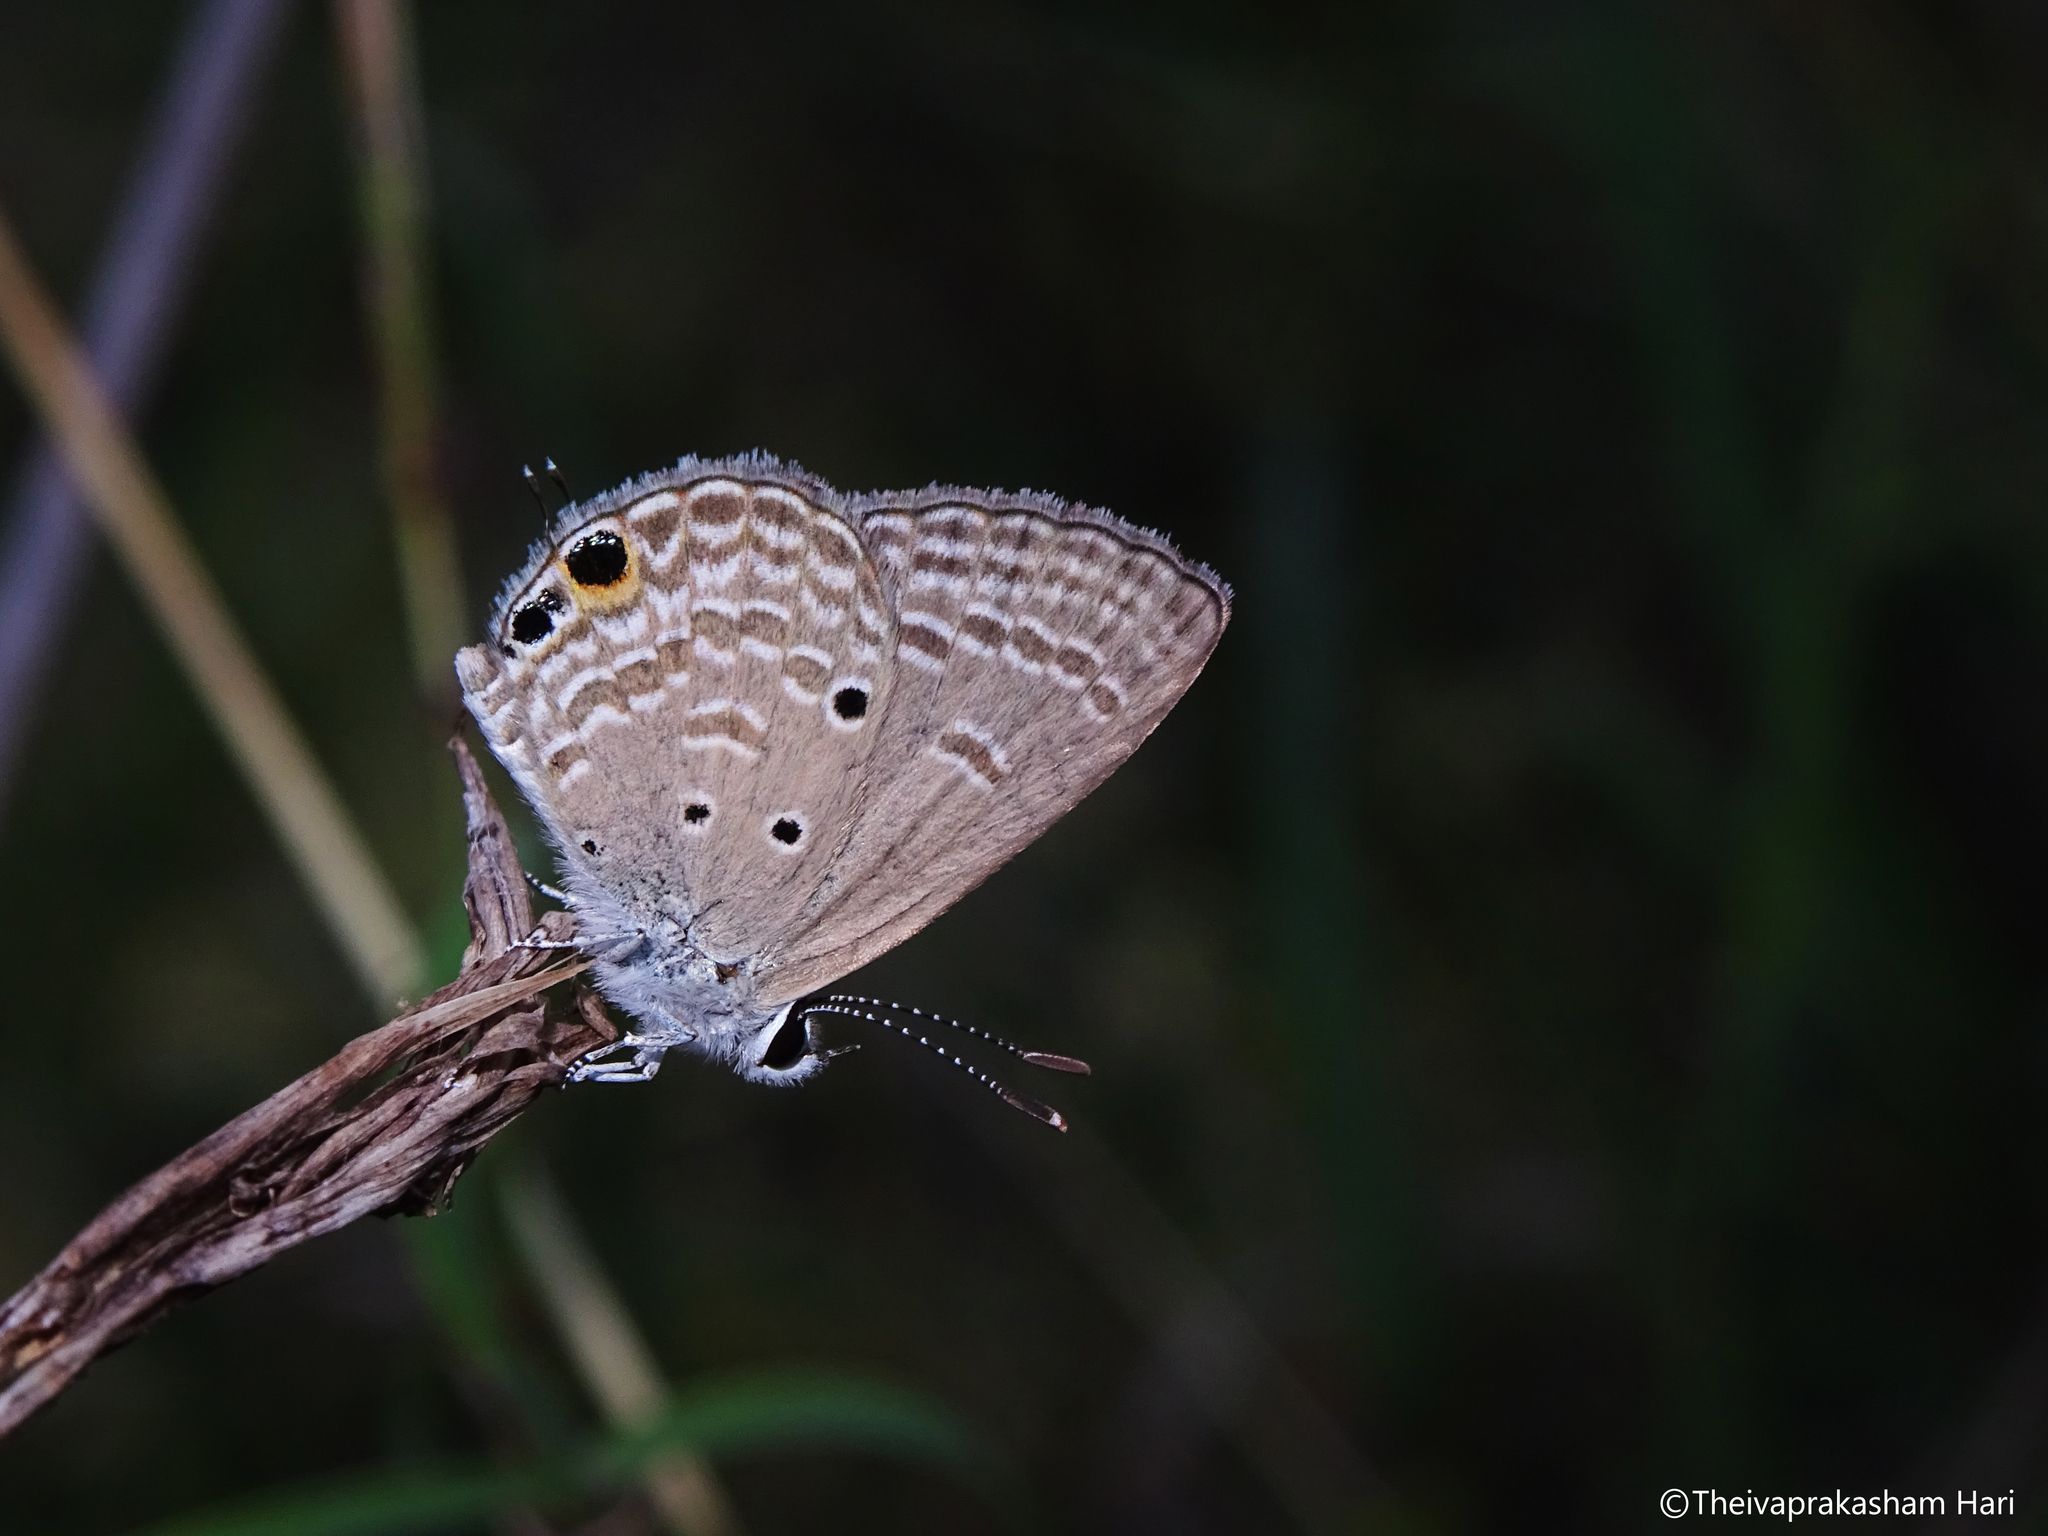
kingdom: Animalia
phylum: Arthropoda
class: Insecta
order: Lepidoptera
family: Lycaenidae
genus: Luthrodes
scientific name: Luthrodes pandava
